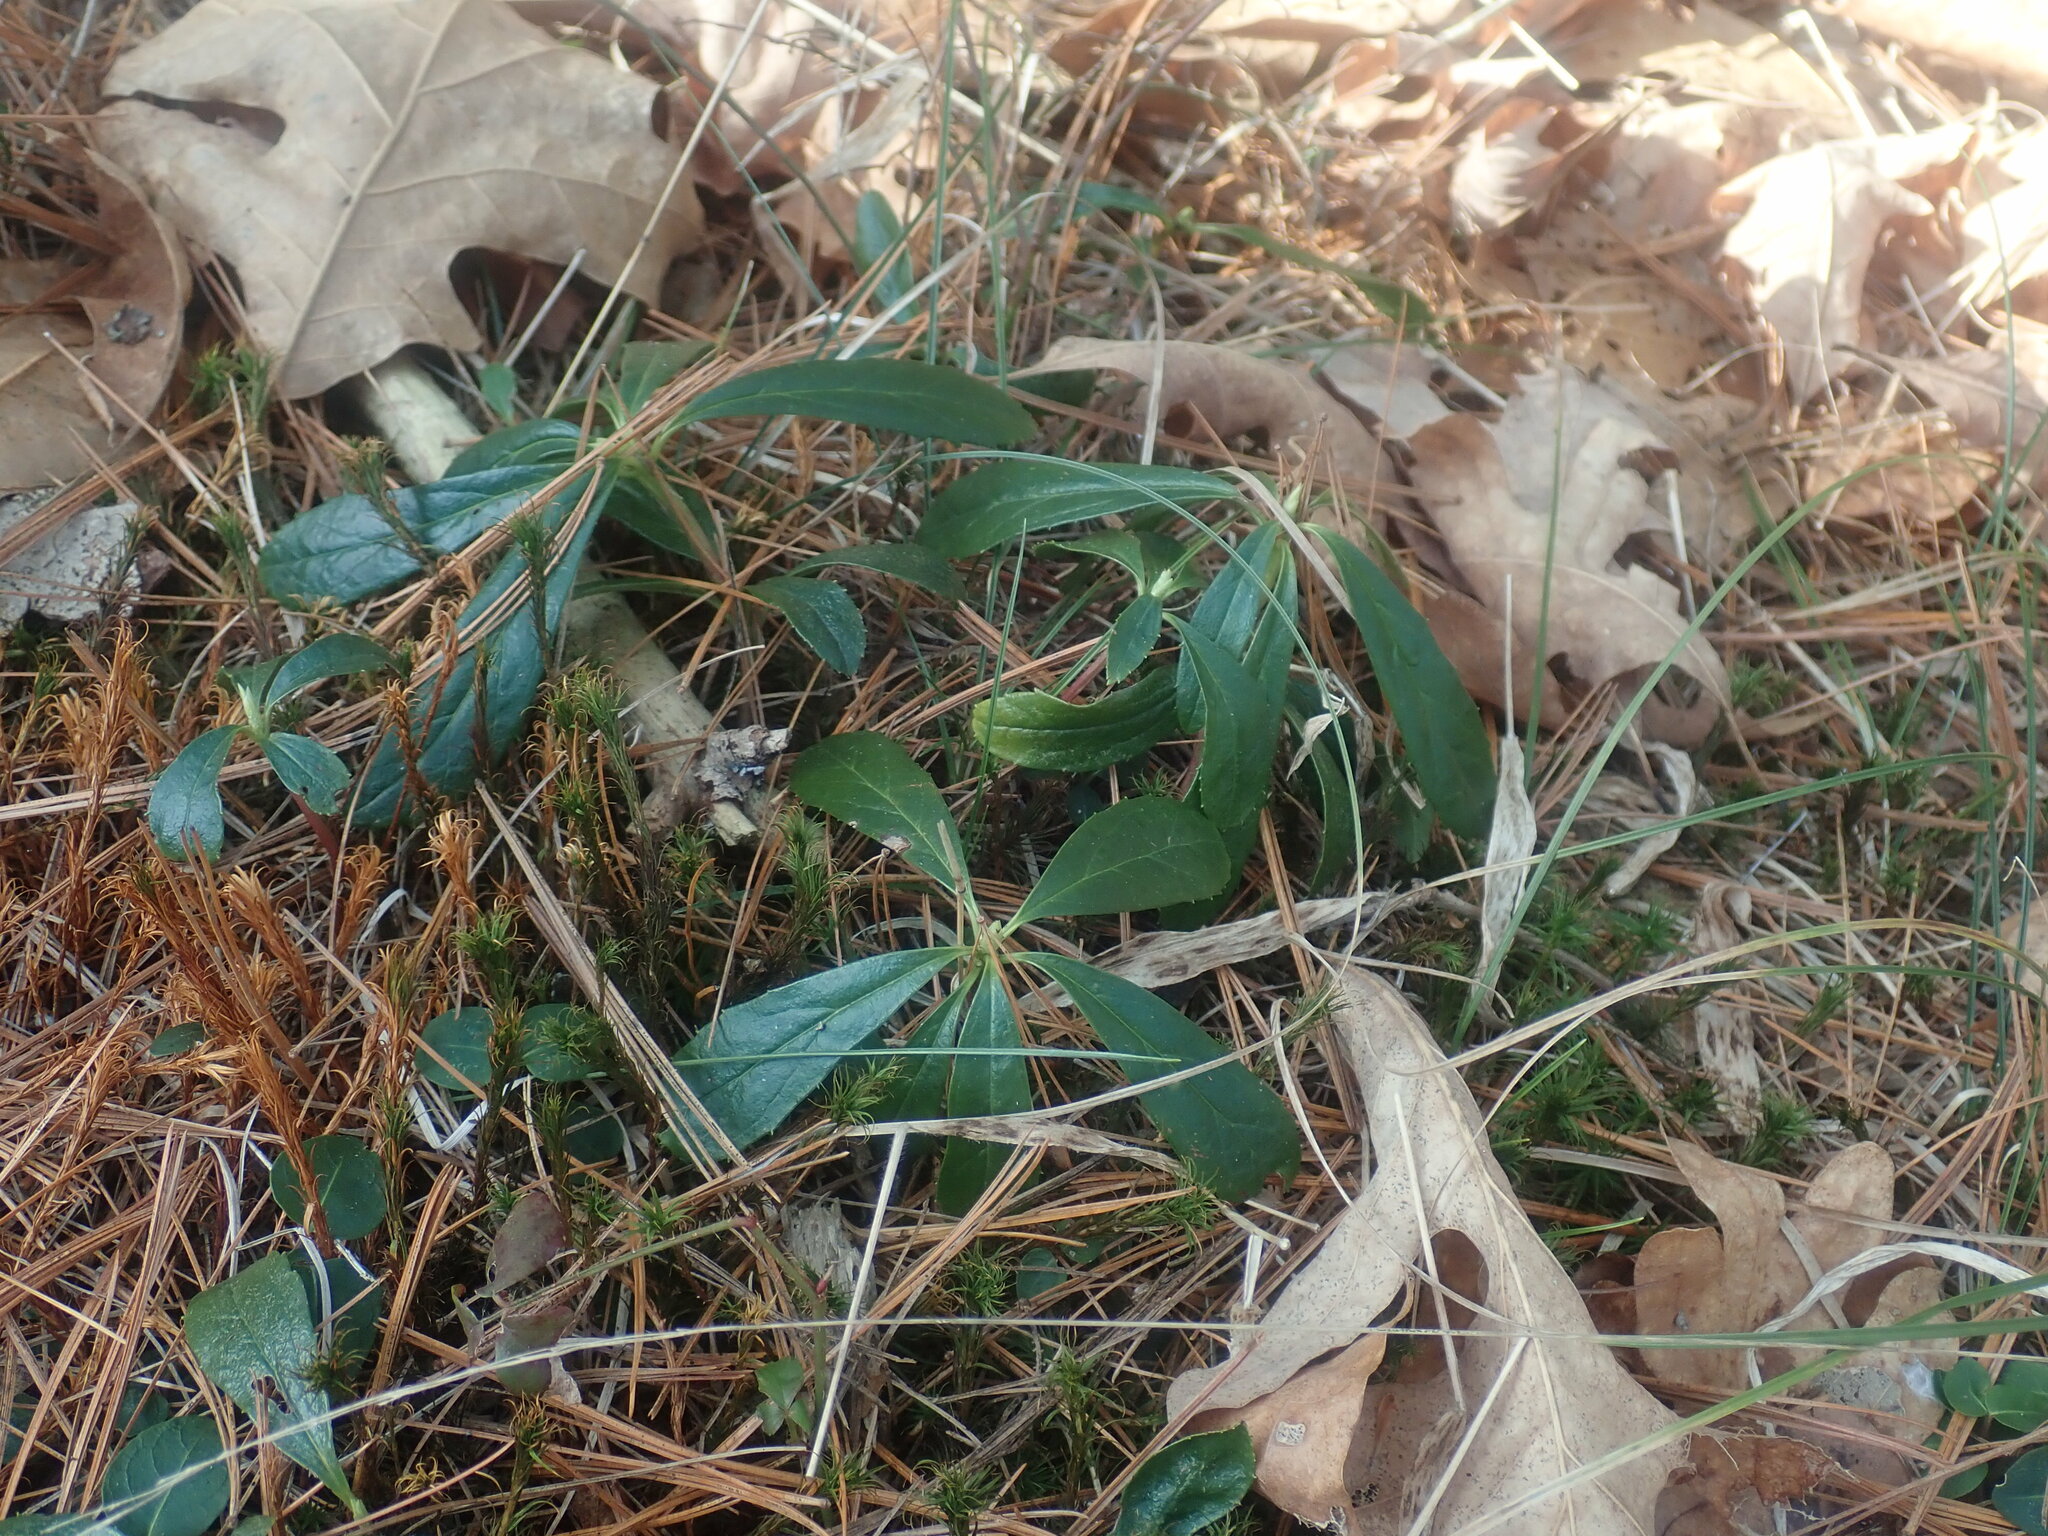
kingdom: Plantae
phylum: Tracheophyta
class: Magnoliopsida
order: Ericales
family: Ericaceae
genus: Chimaphila
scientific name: Chimaphila umbellata
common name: Pipsissewa
